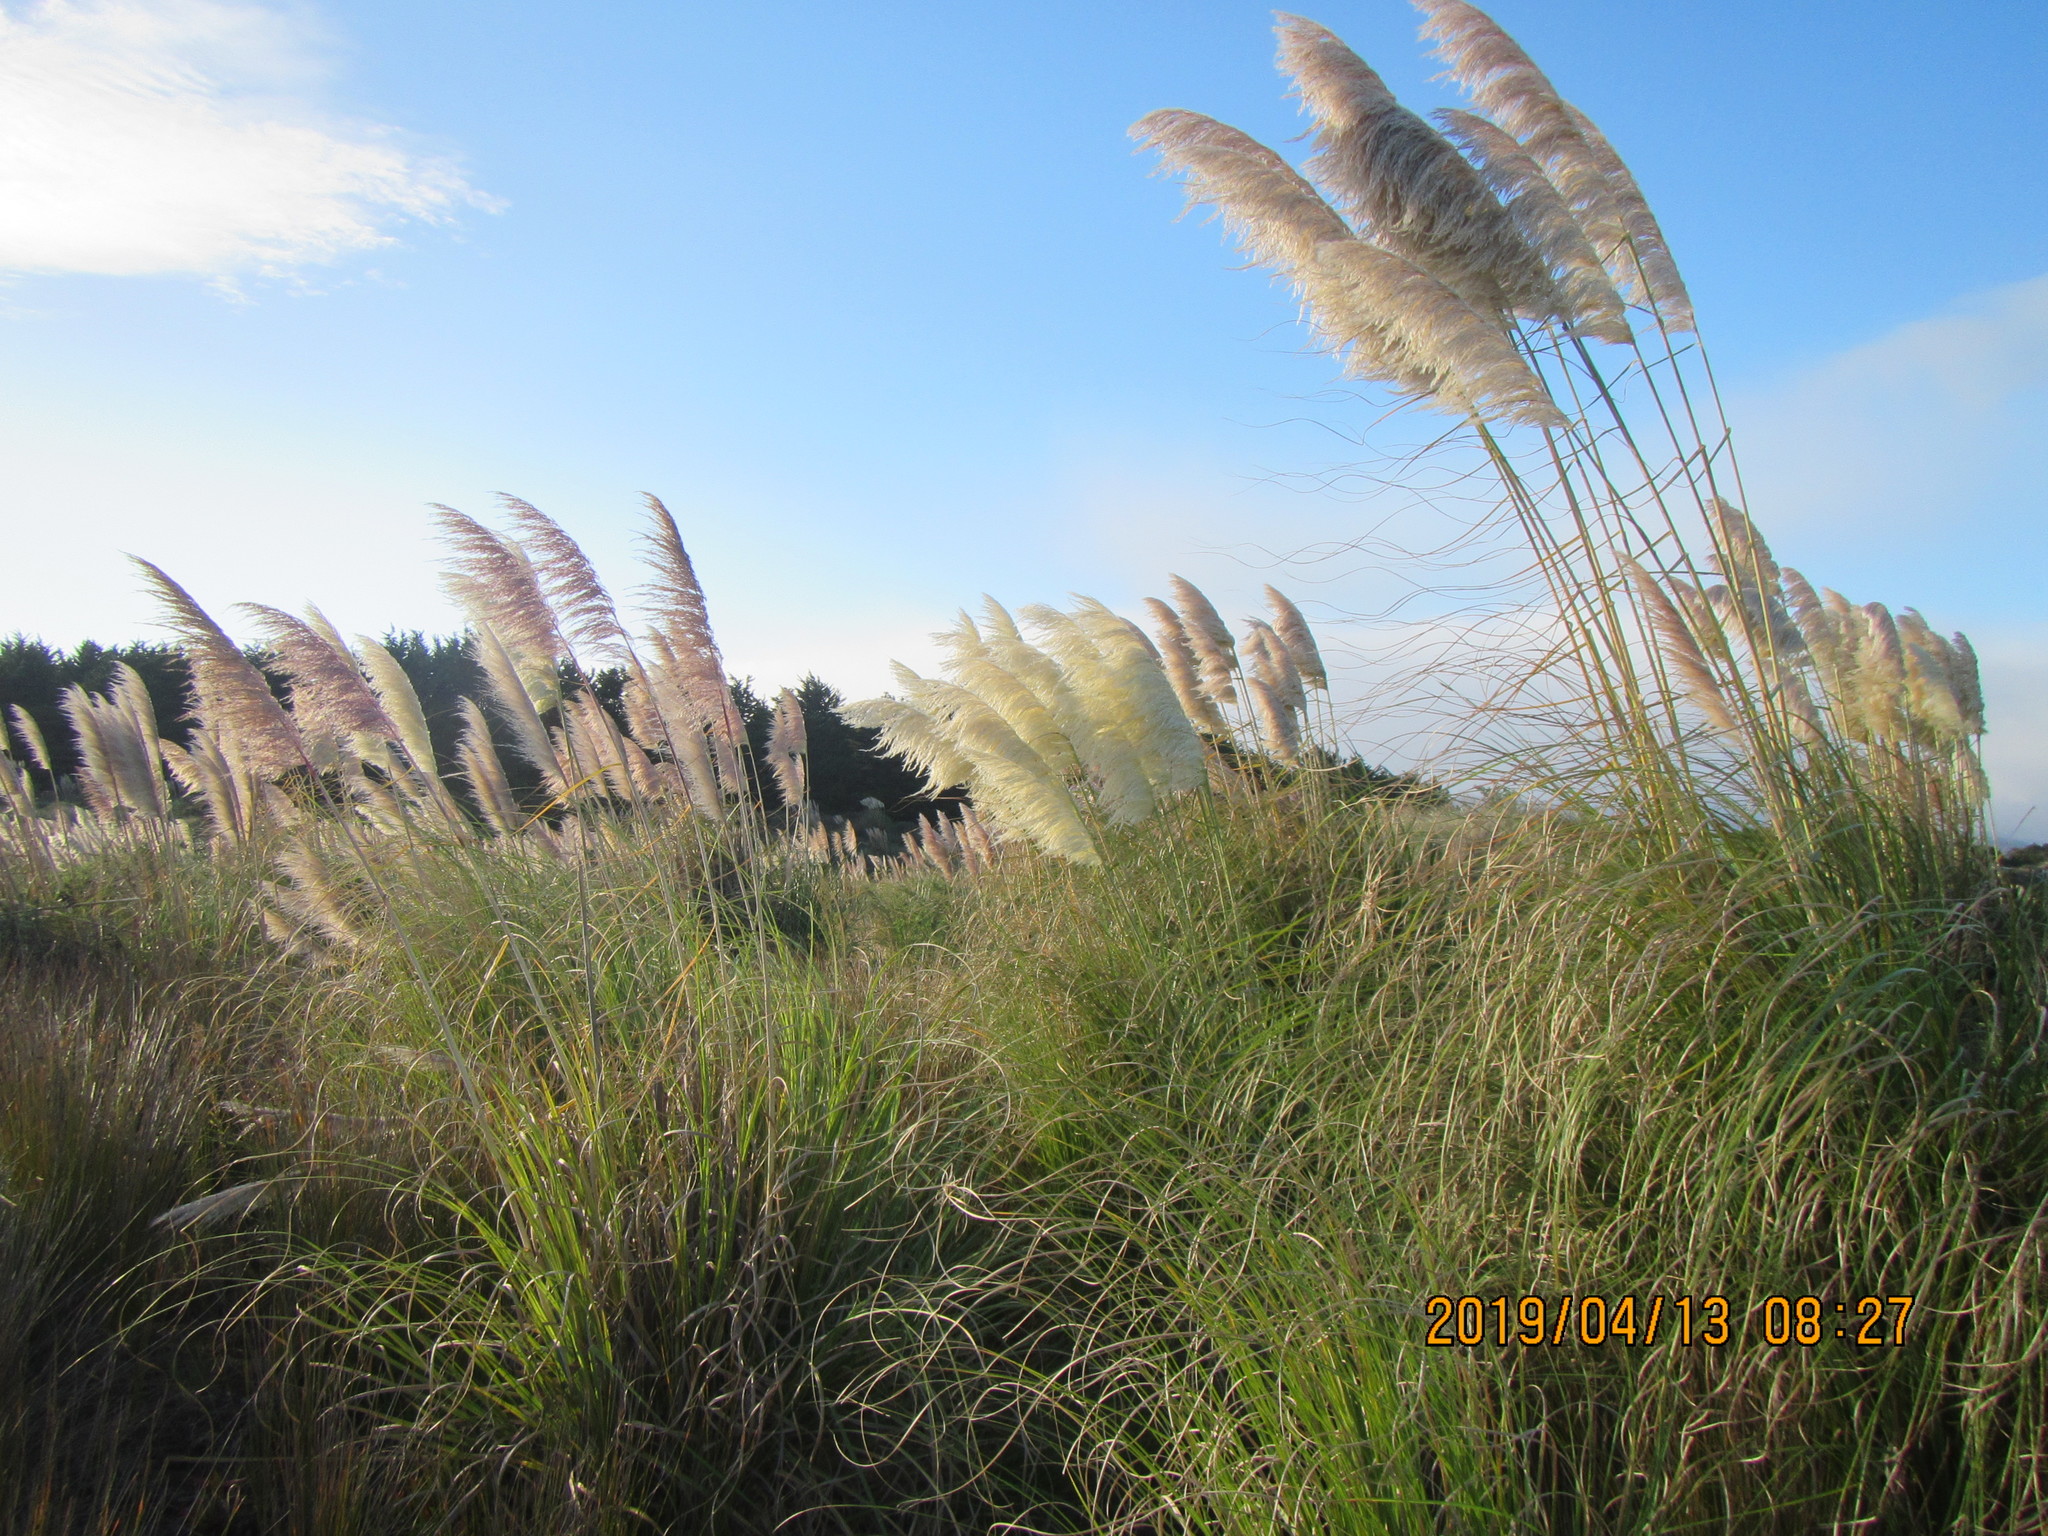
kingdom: Plantae
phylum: Tracheophyta
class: Liliopsida
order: Poales
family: Poaceae
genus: Cortaderia
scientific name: Cortaderia selloana
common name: Uruguayan pampas grass
